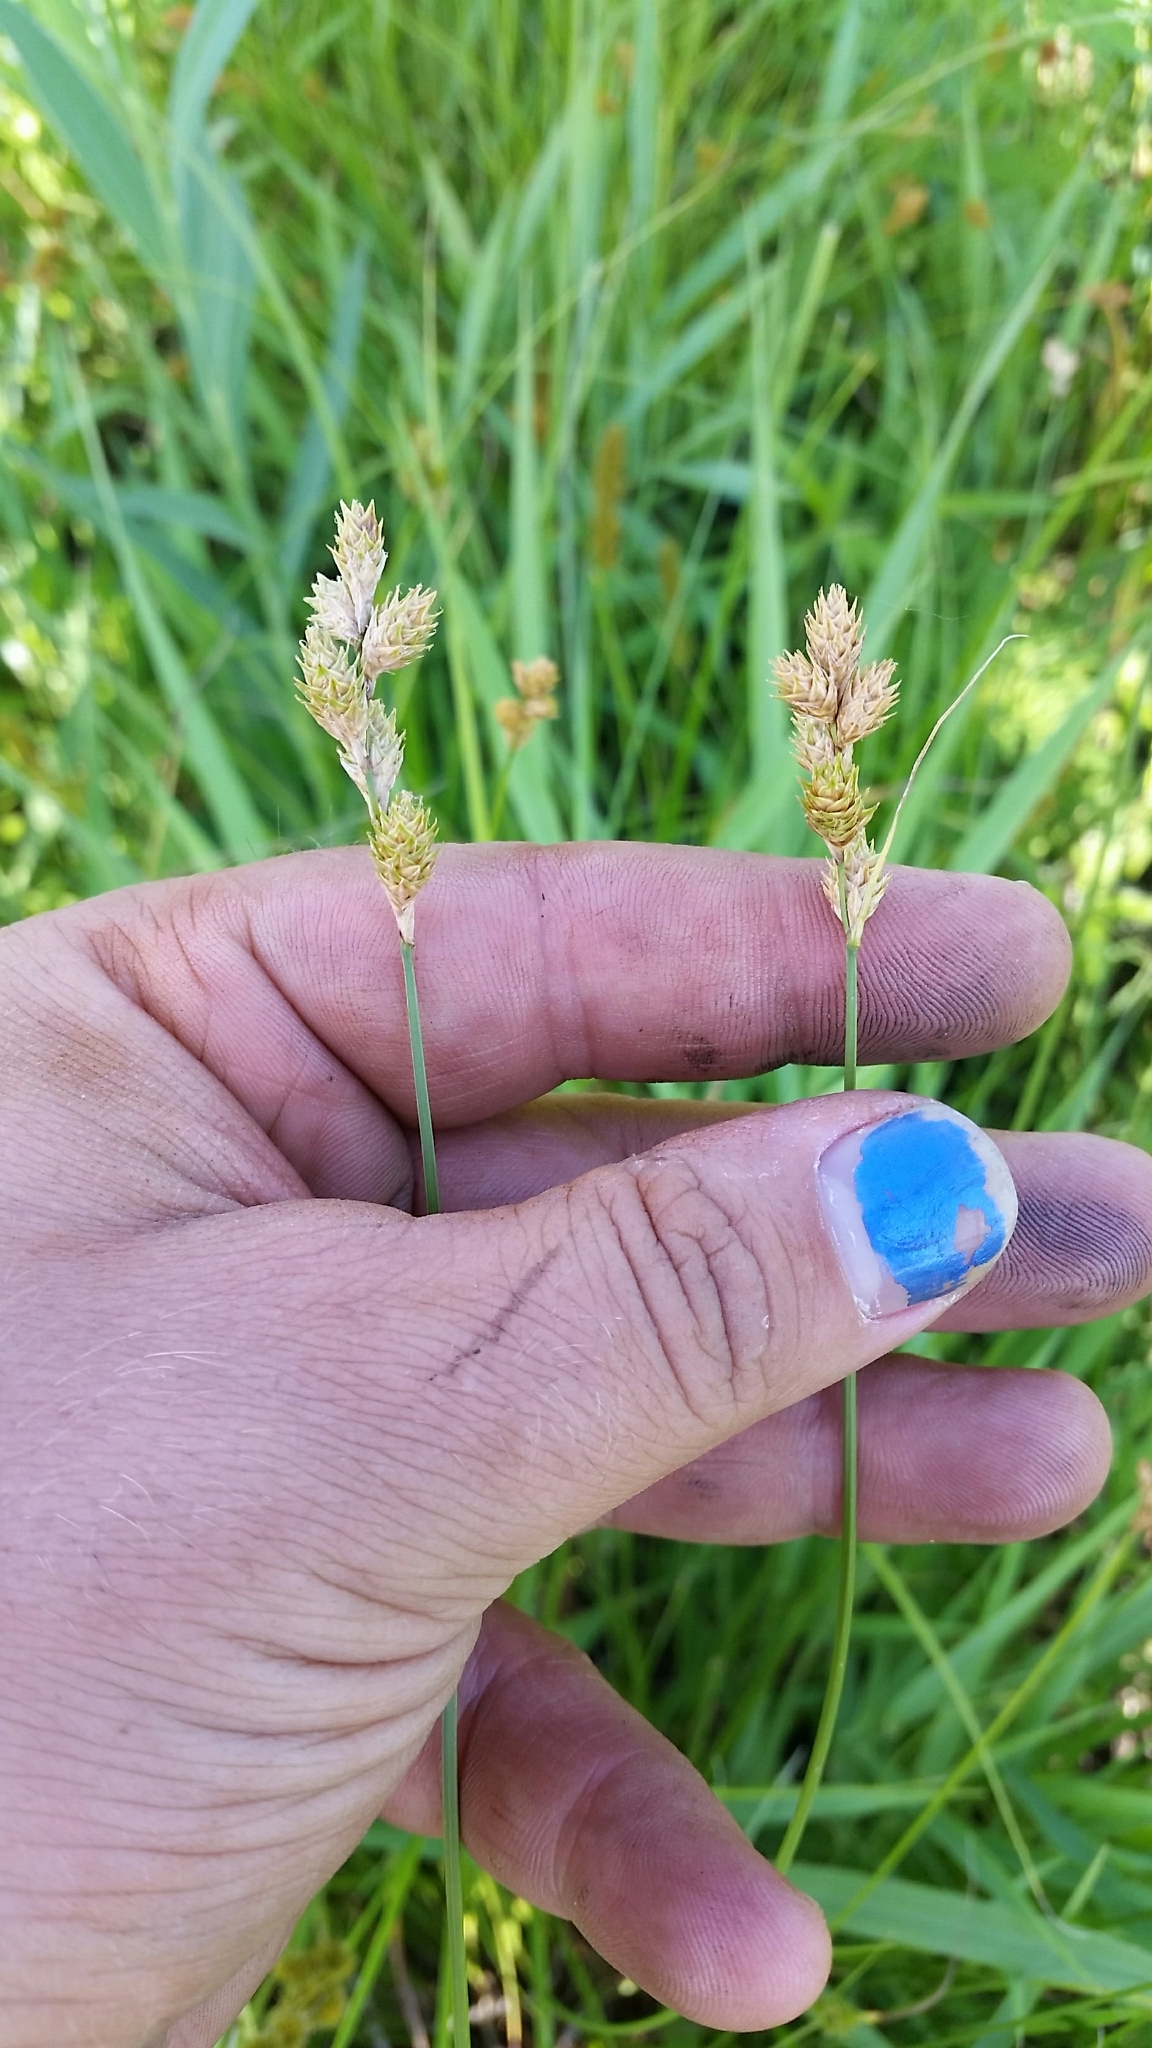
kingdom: Plantae
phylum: Tracheophyta
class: Liliopsida
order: Poales
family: Cyperaceae
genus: Carex
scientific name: Carex bicknellii
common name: Bicknell's sedge
